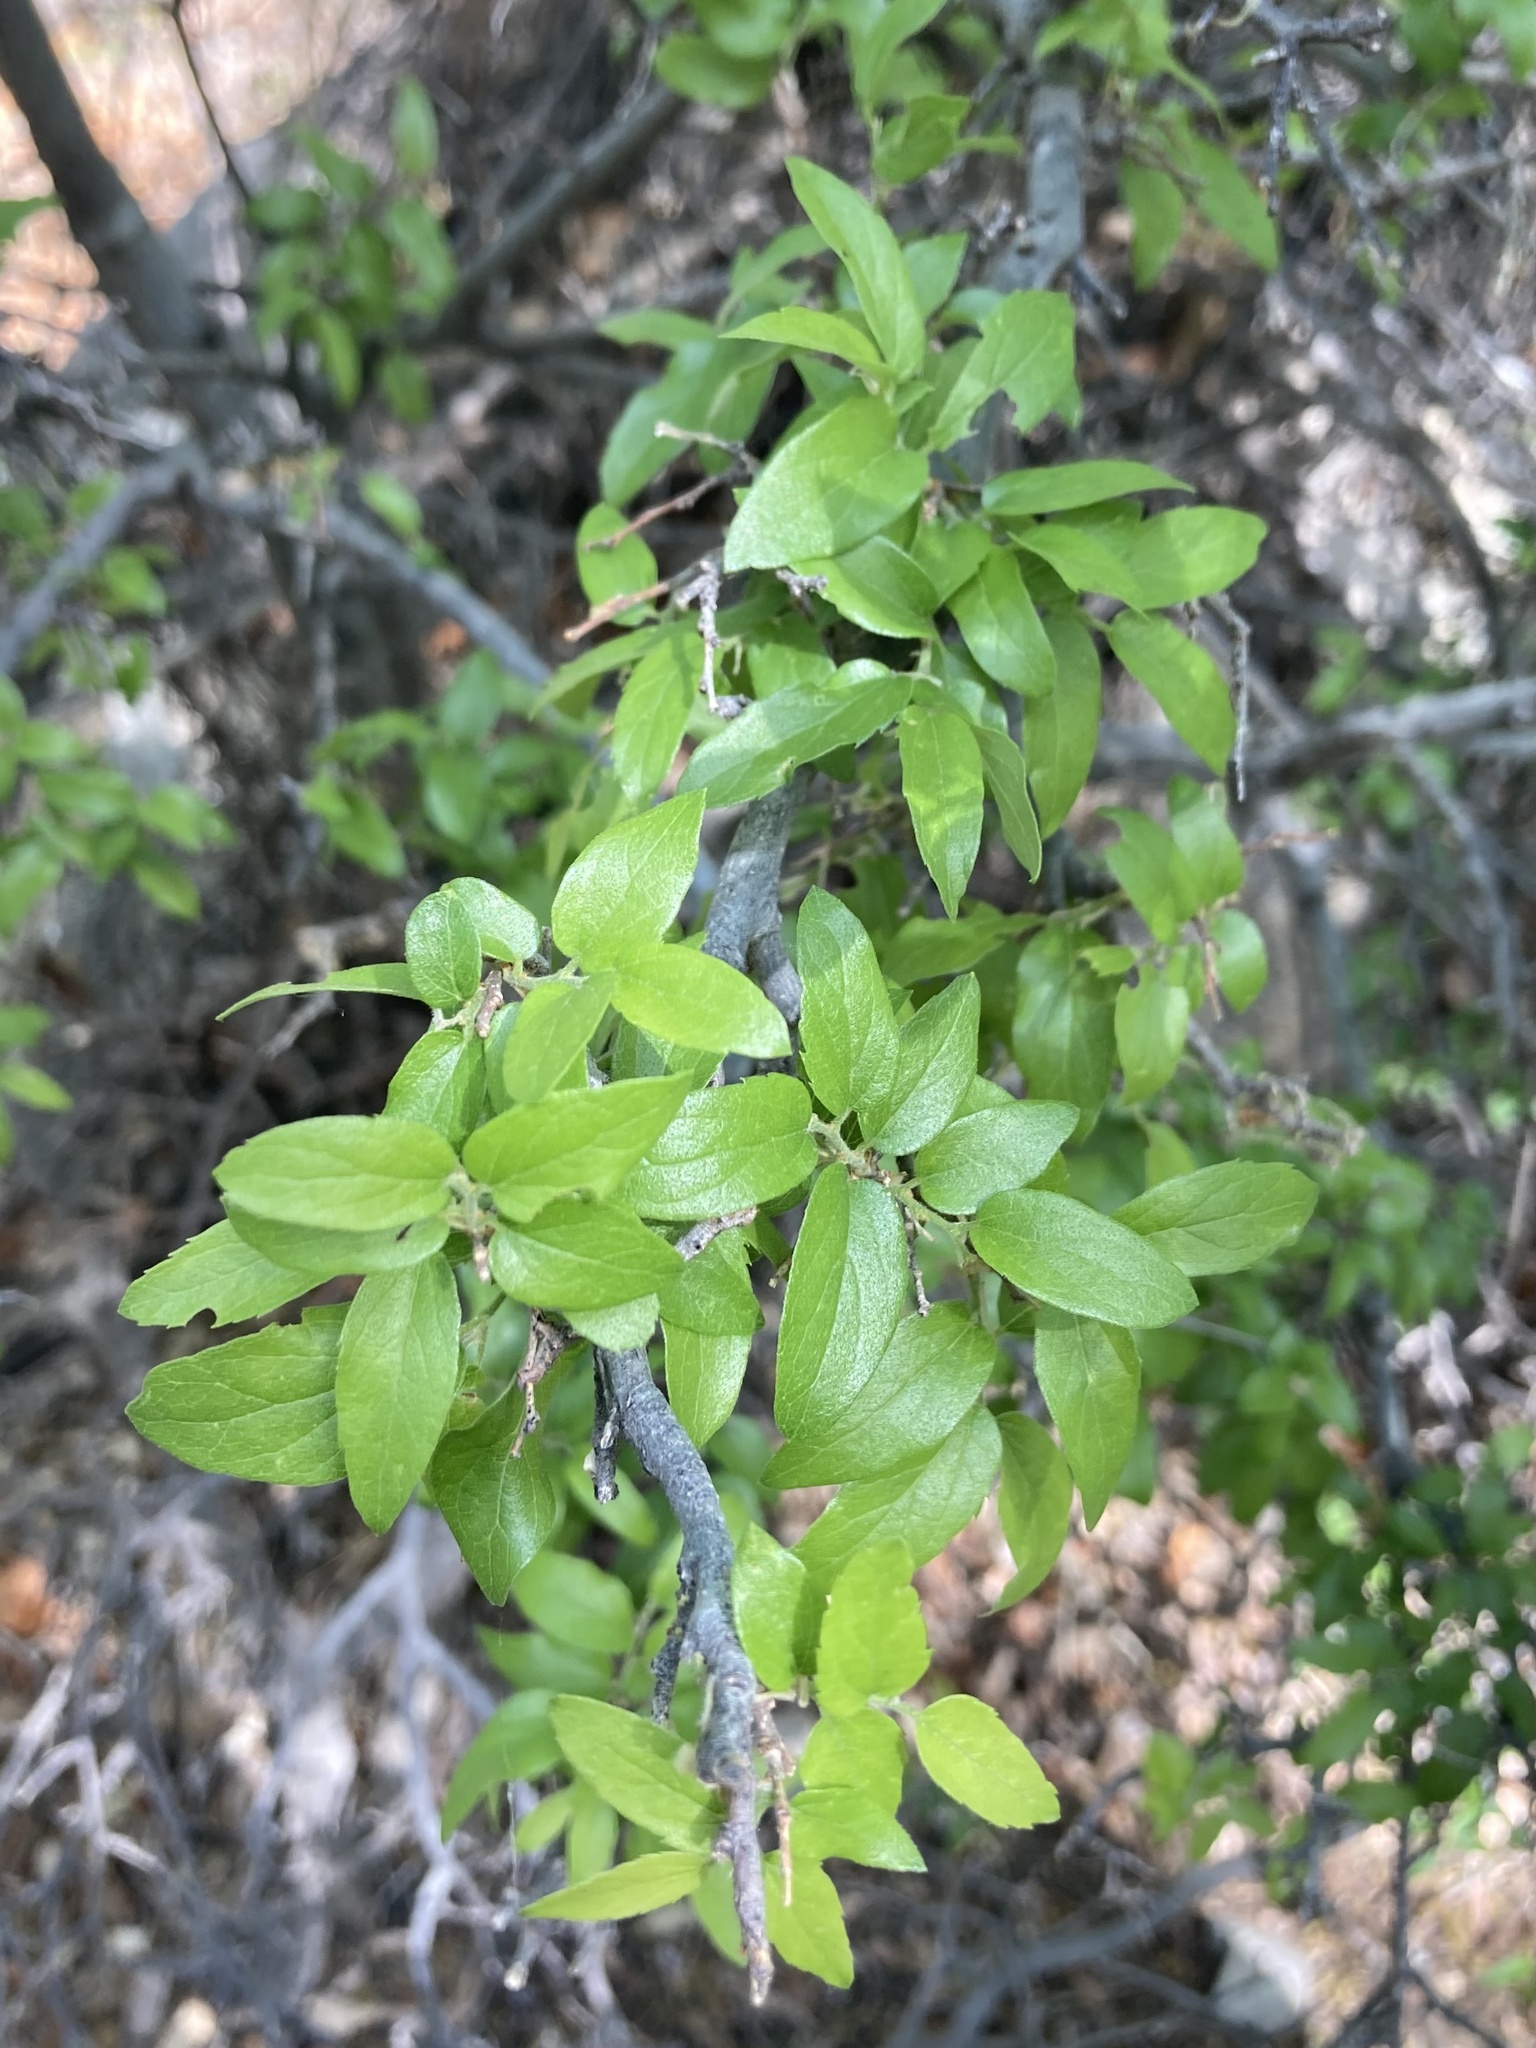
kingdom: Plantae
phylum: Tracheophyta
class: Magnoliopsida
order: Rosales
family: Cannabaceae
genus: Celtis
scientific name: Celtis reticulata
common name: Netleaf hackberry
